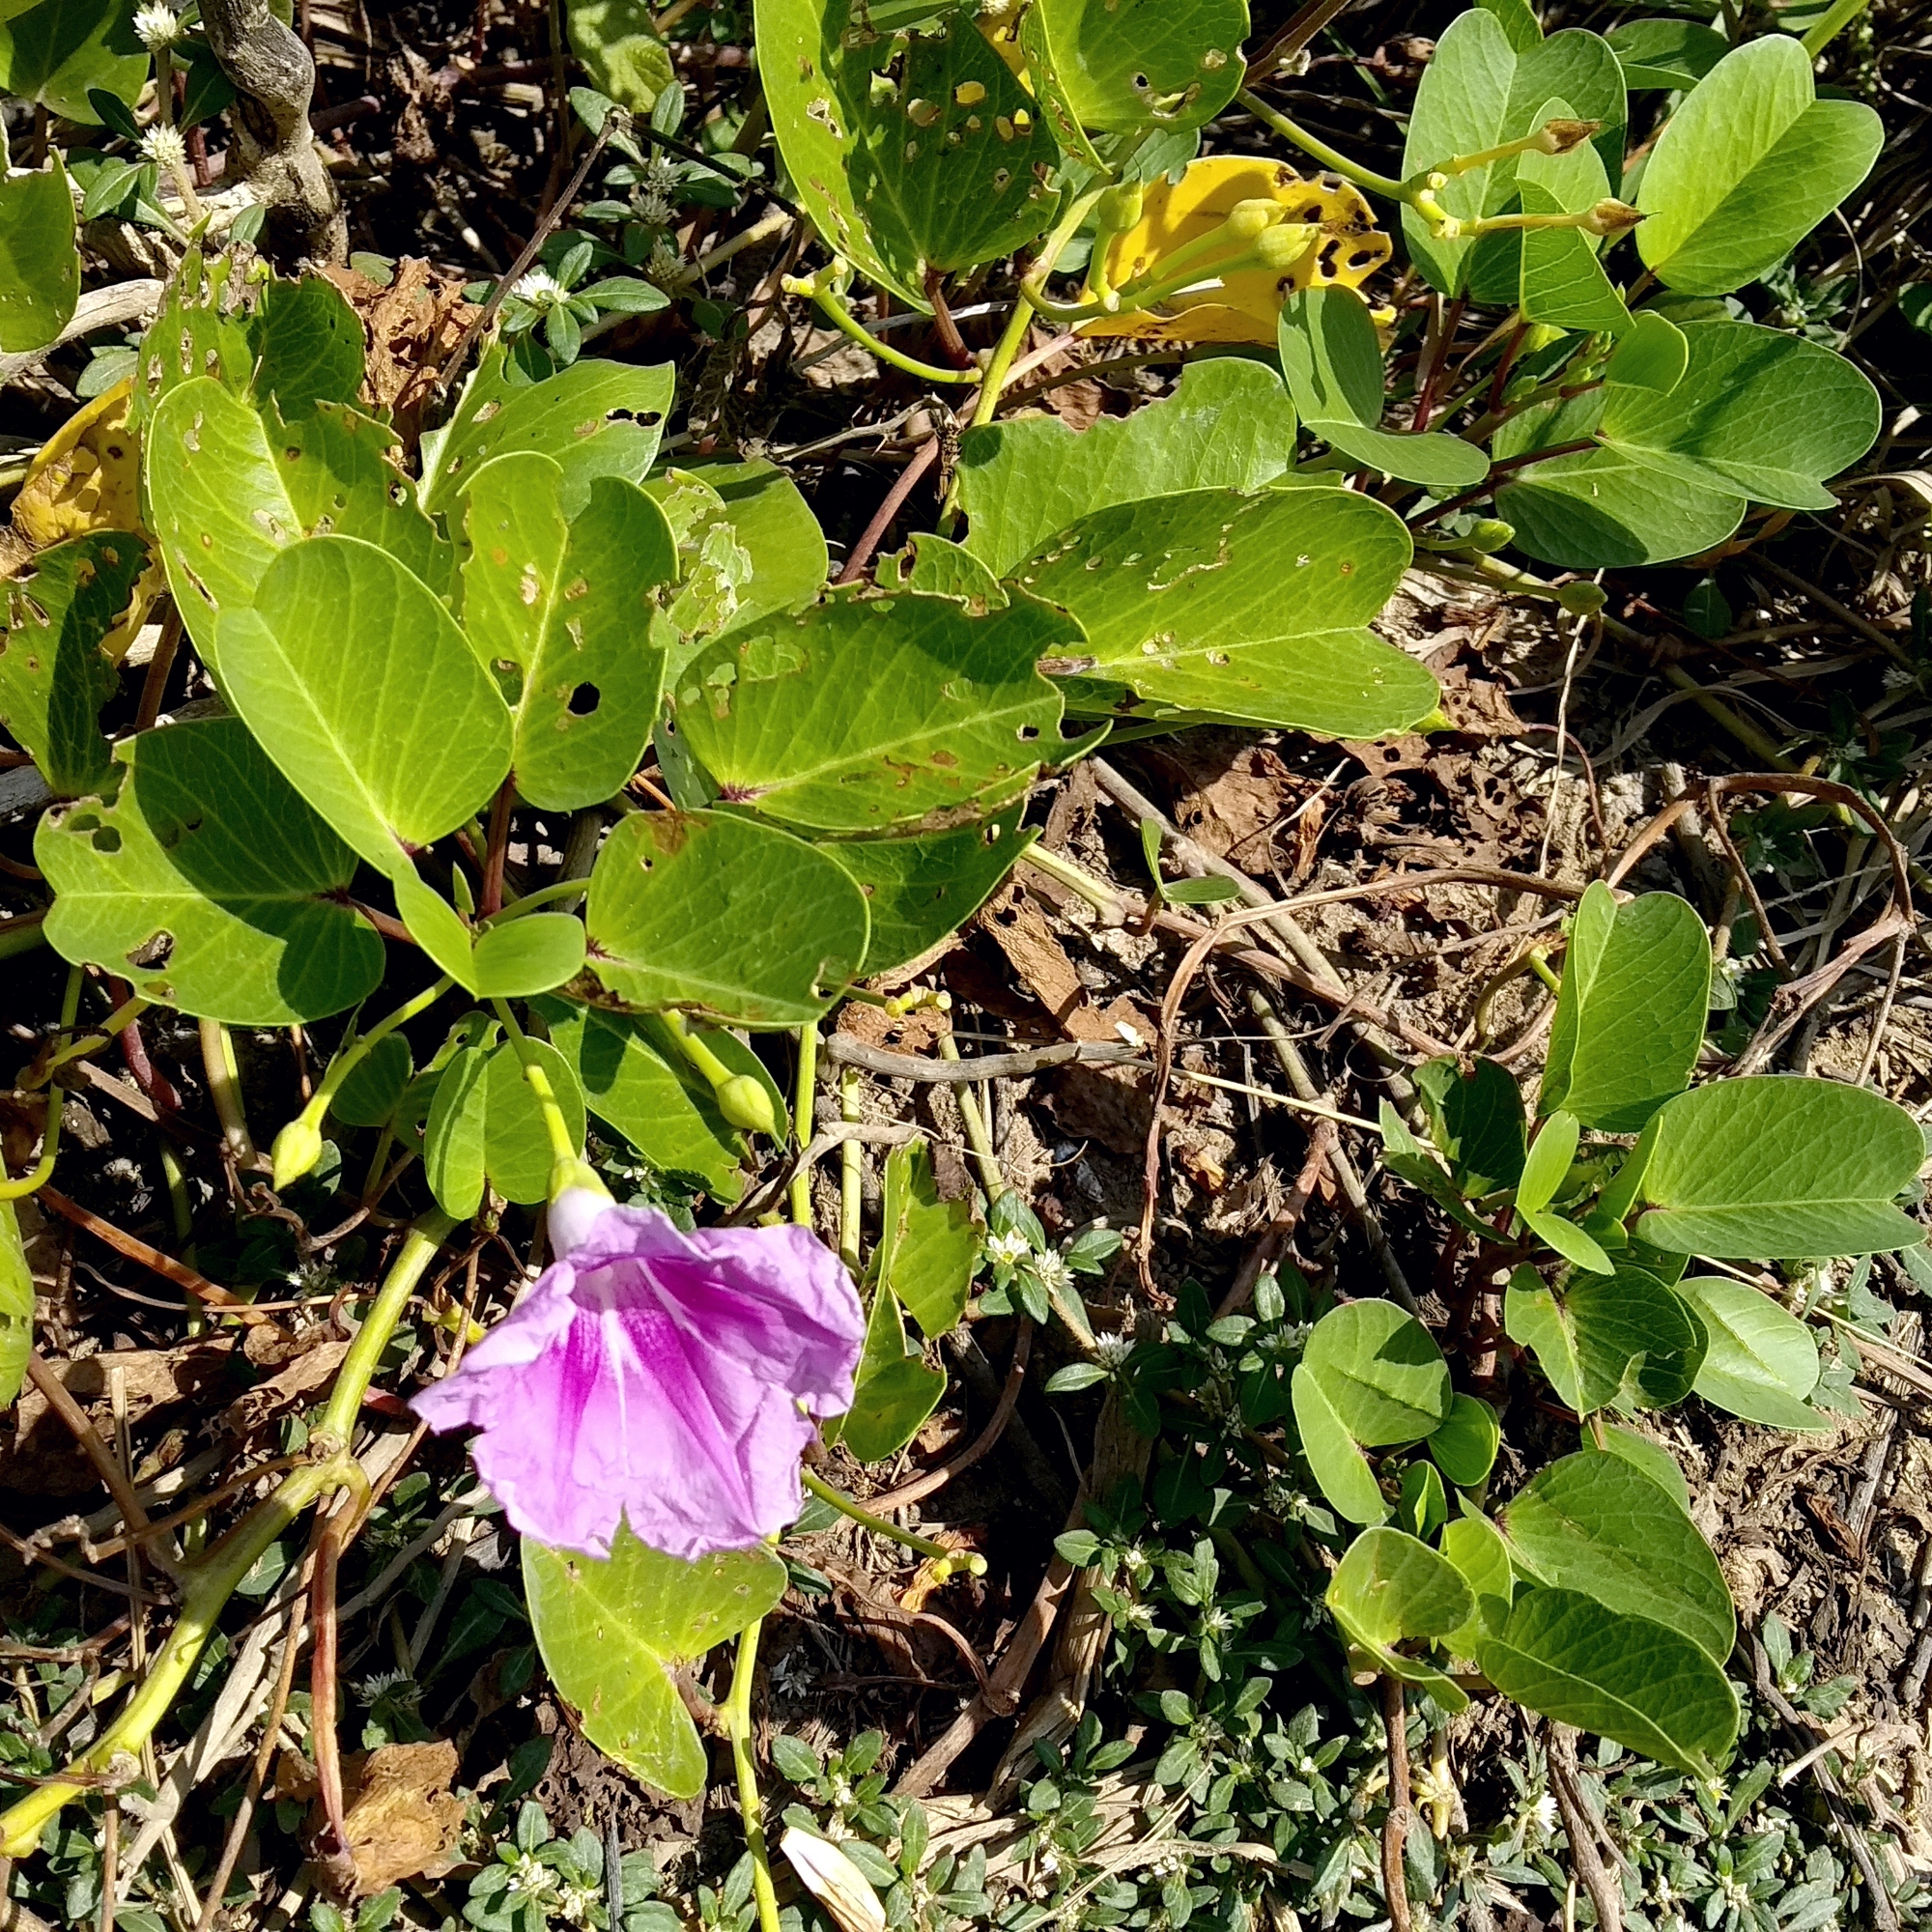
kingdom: Plantae
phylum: Tracheophyta
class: Magnoliopsida
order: Solanales
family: Convolvulaceae
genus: Ipomoea
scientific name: Ipomoea pes-caprae
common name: Beach morning glory
